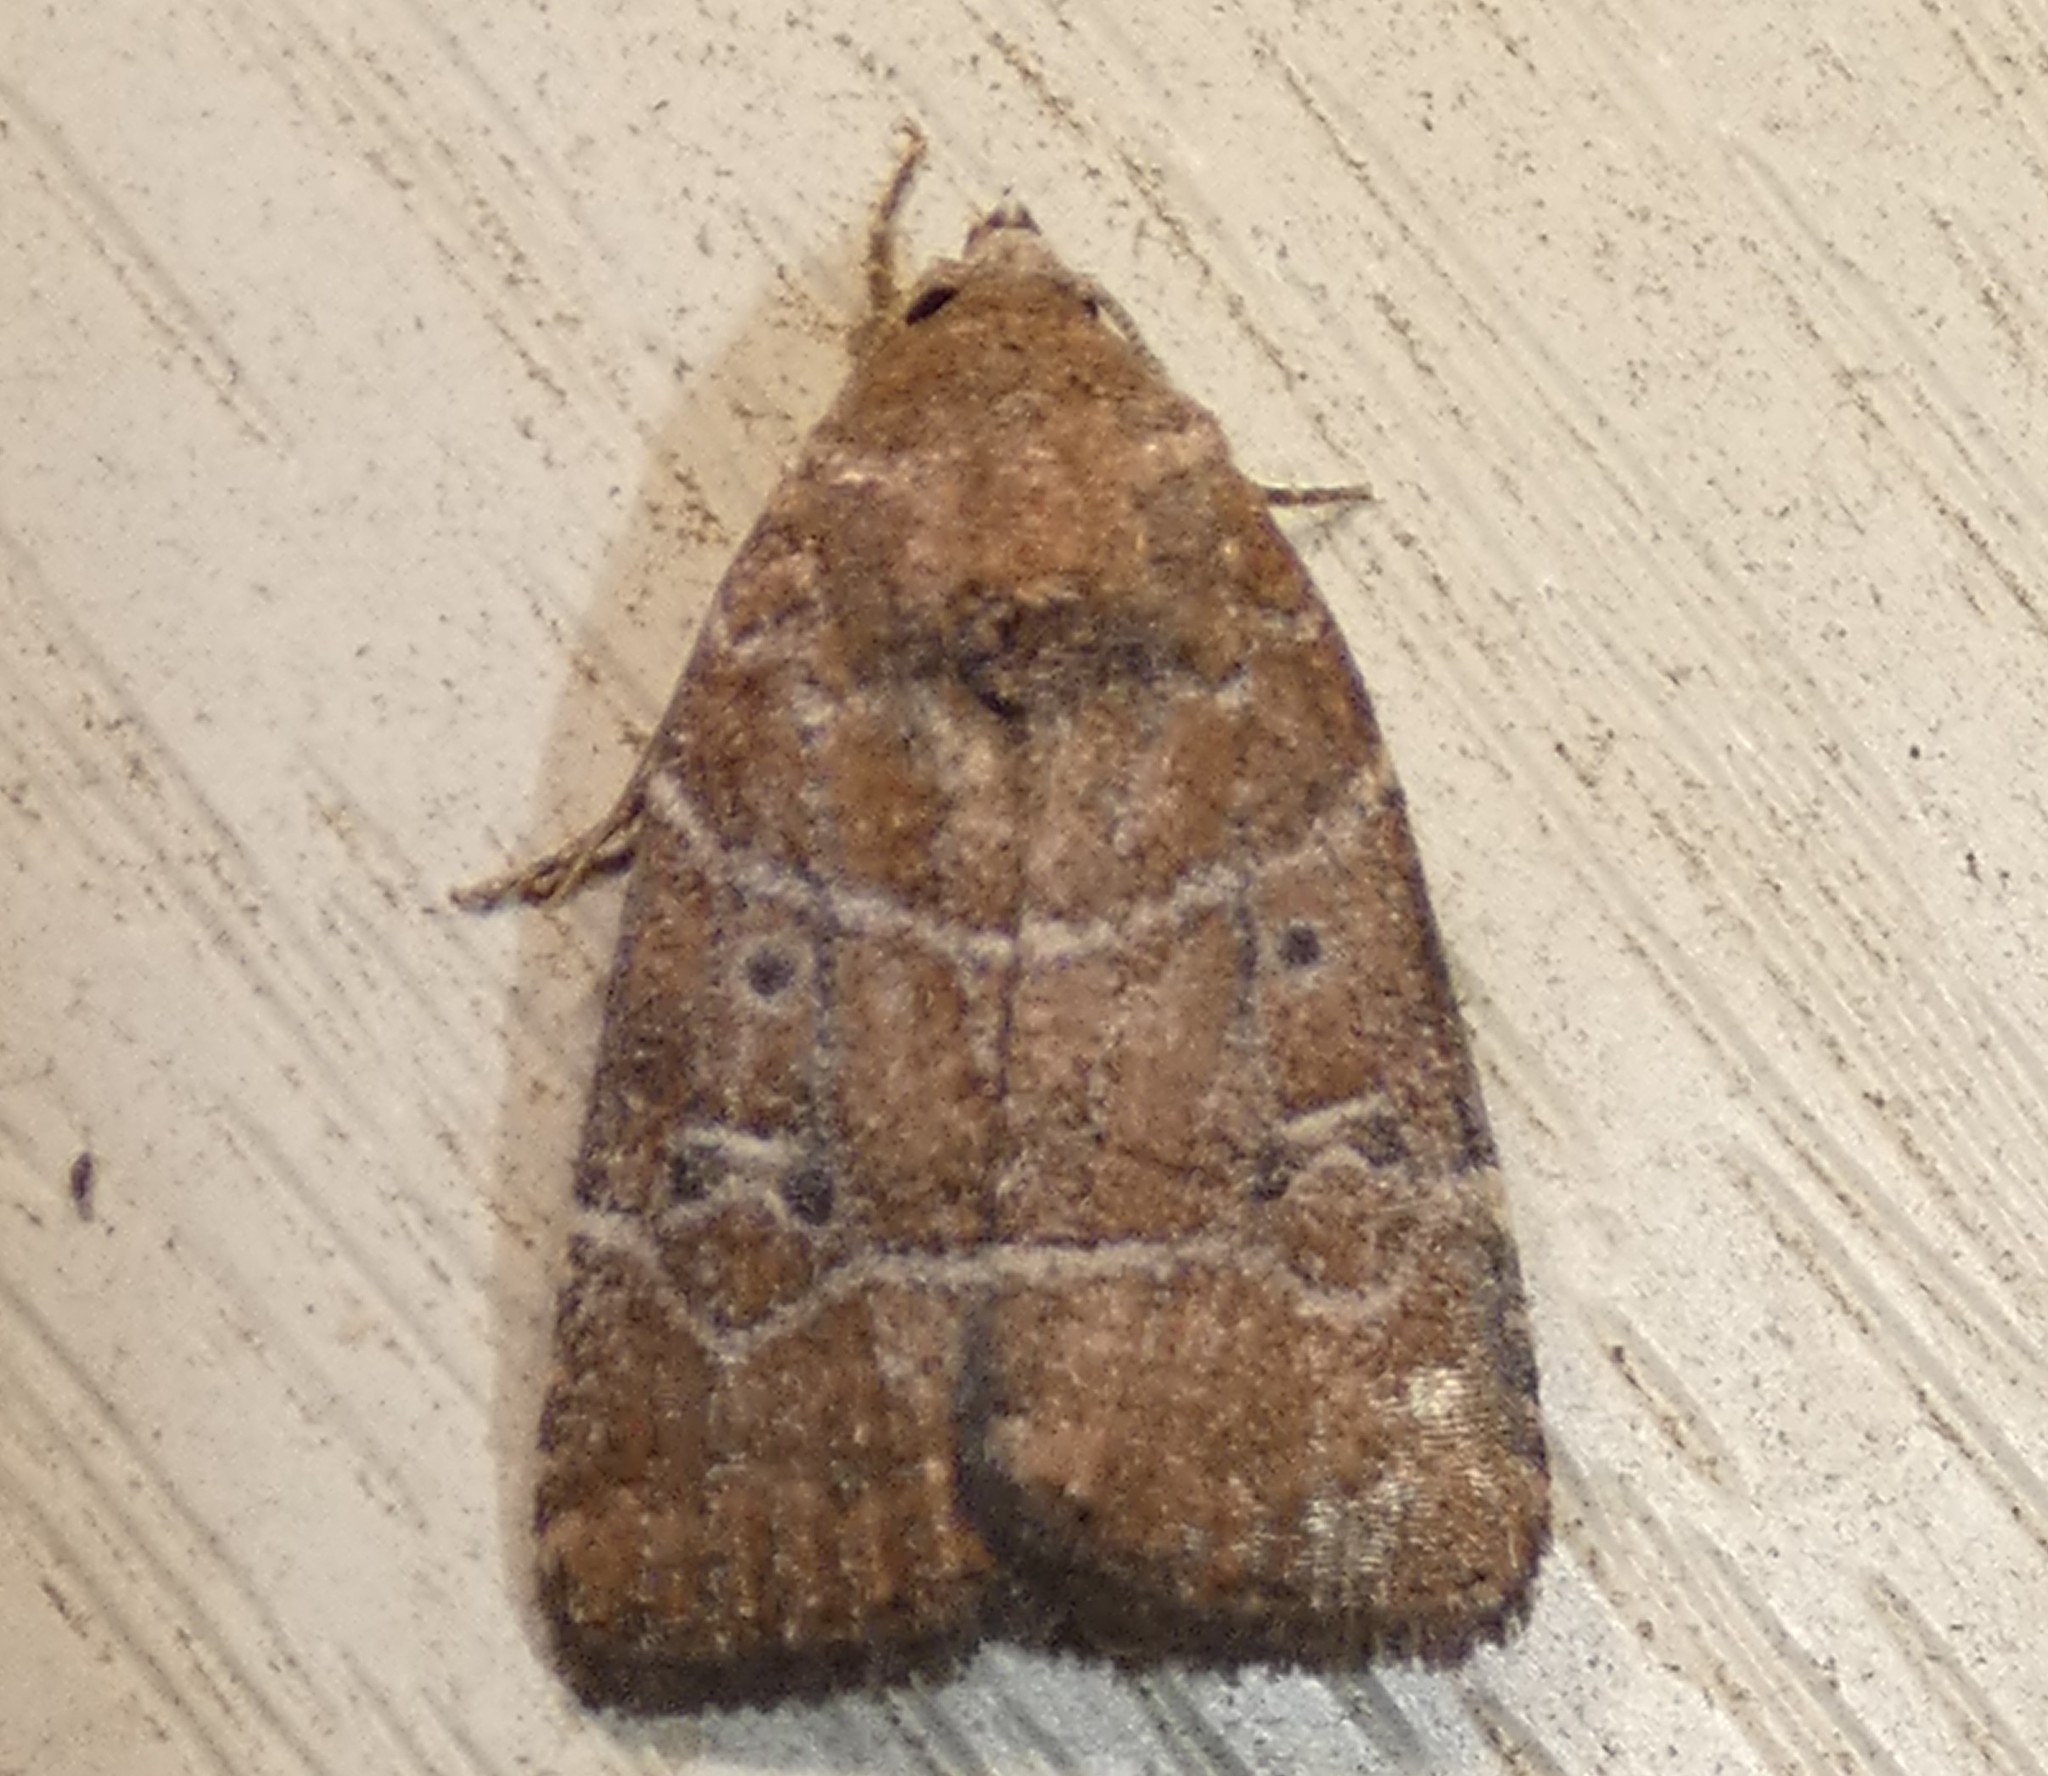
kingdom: Animalia
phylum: Arthropoda
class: Insecta
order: Lepidoptera
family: Noctuidae
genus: Elaphria
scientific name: Elaphria grata
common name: Grateful midget moth
